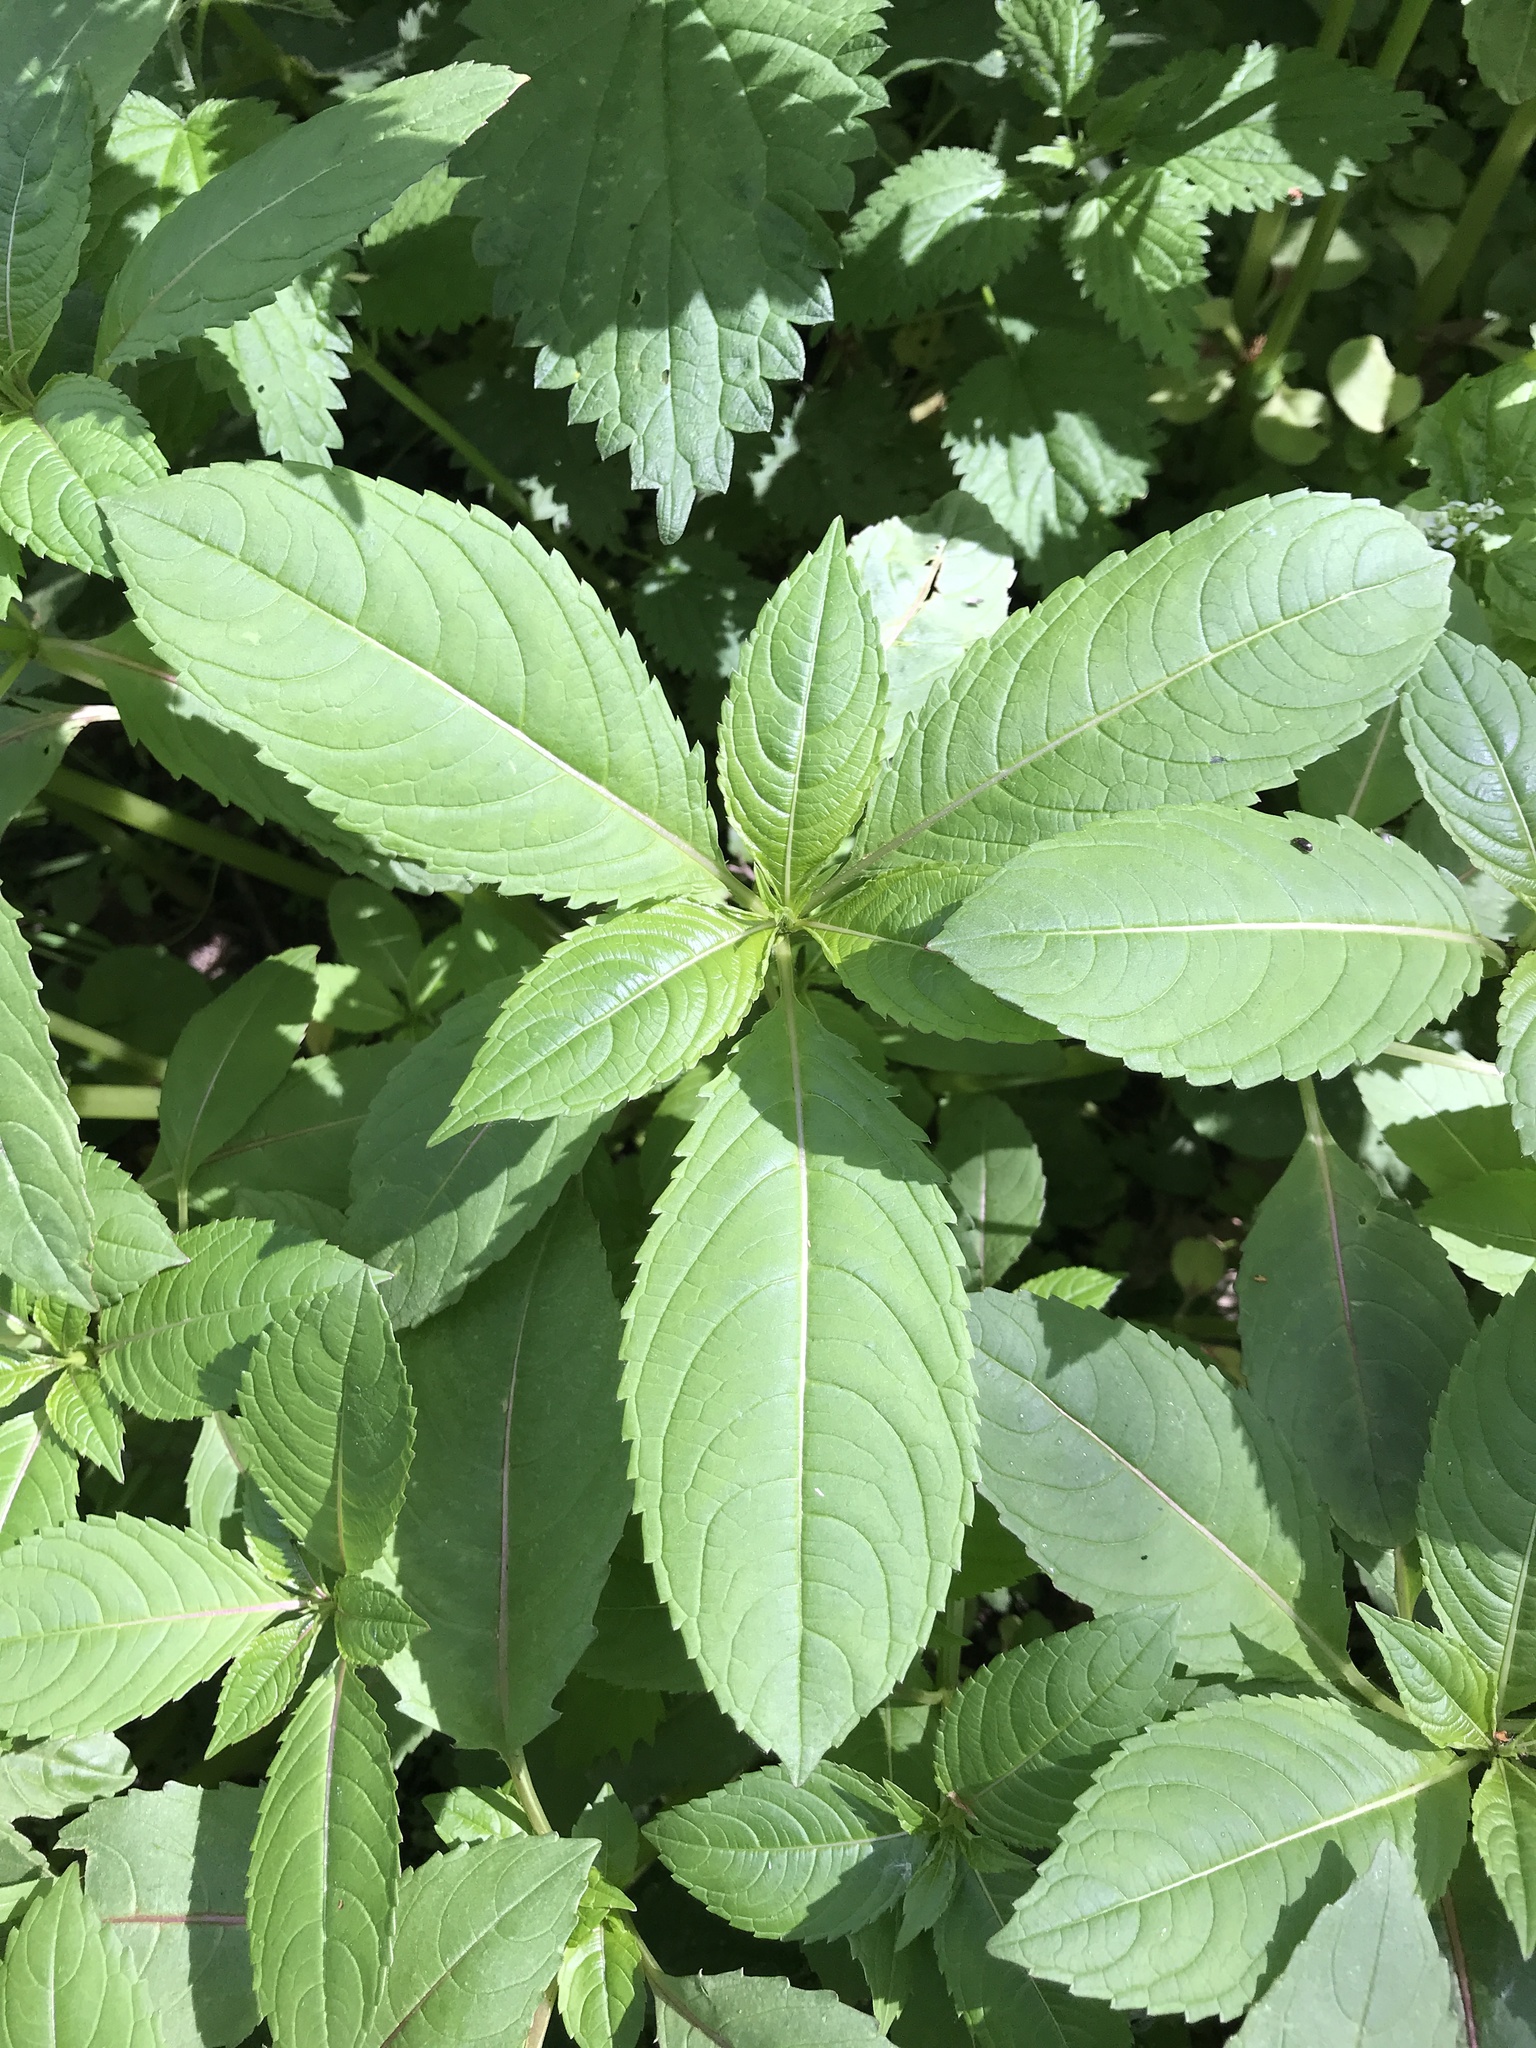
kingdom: Plantae
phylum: Tracheophyta
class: Magnoliopsida
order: Ericales
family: Balsaminaceae
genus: Impatiens
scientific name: Impatiens glandulifera
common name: Himalayan balsam
